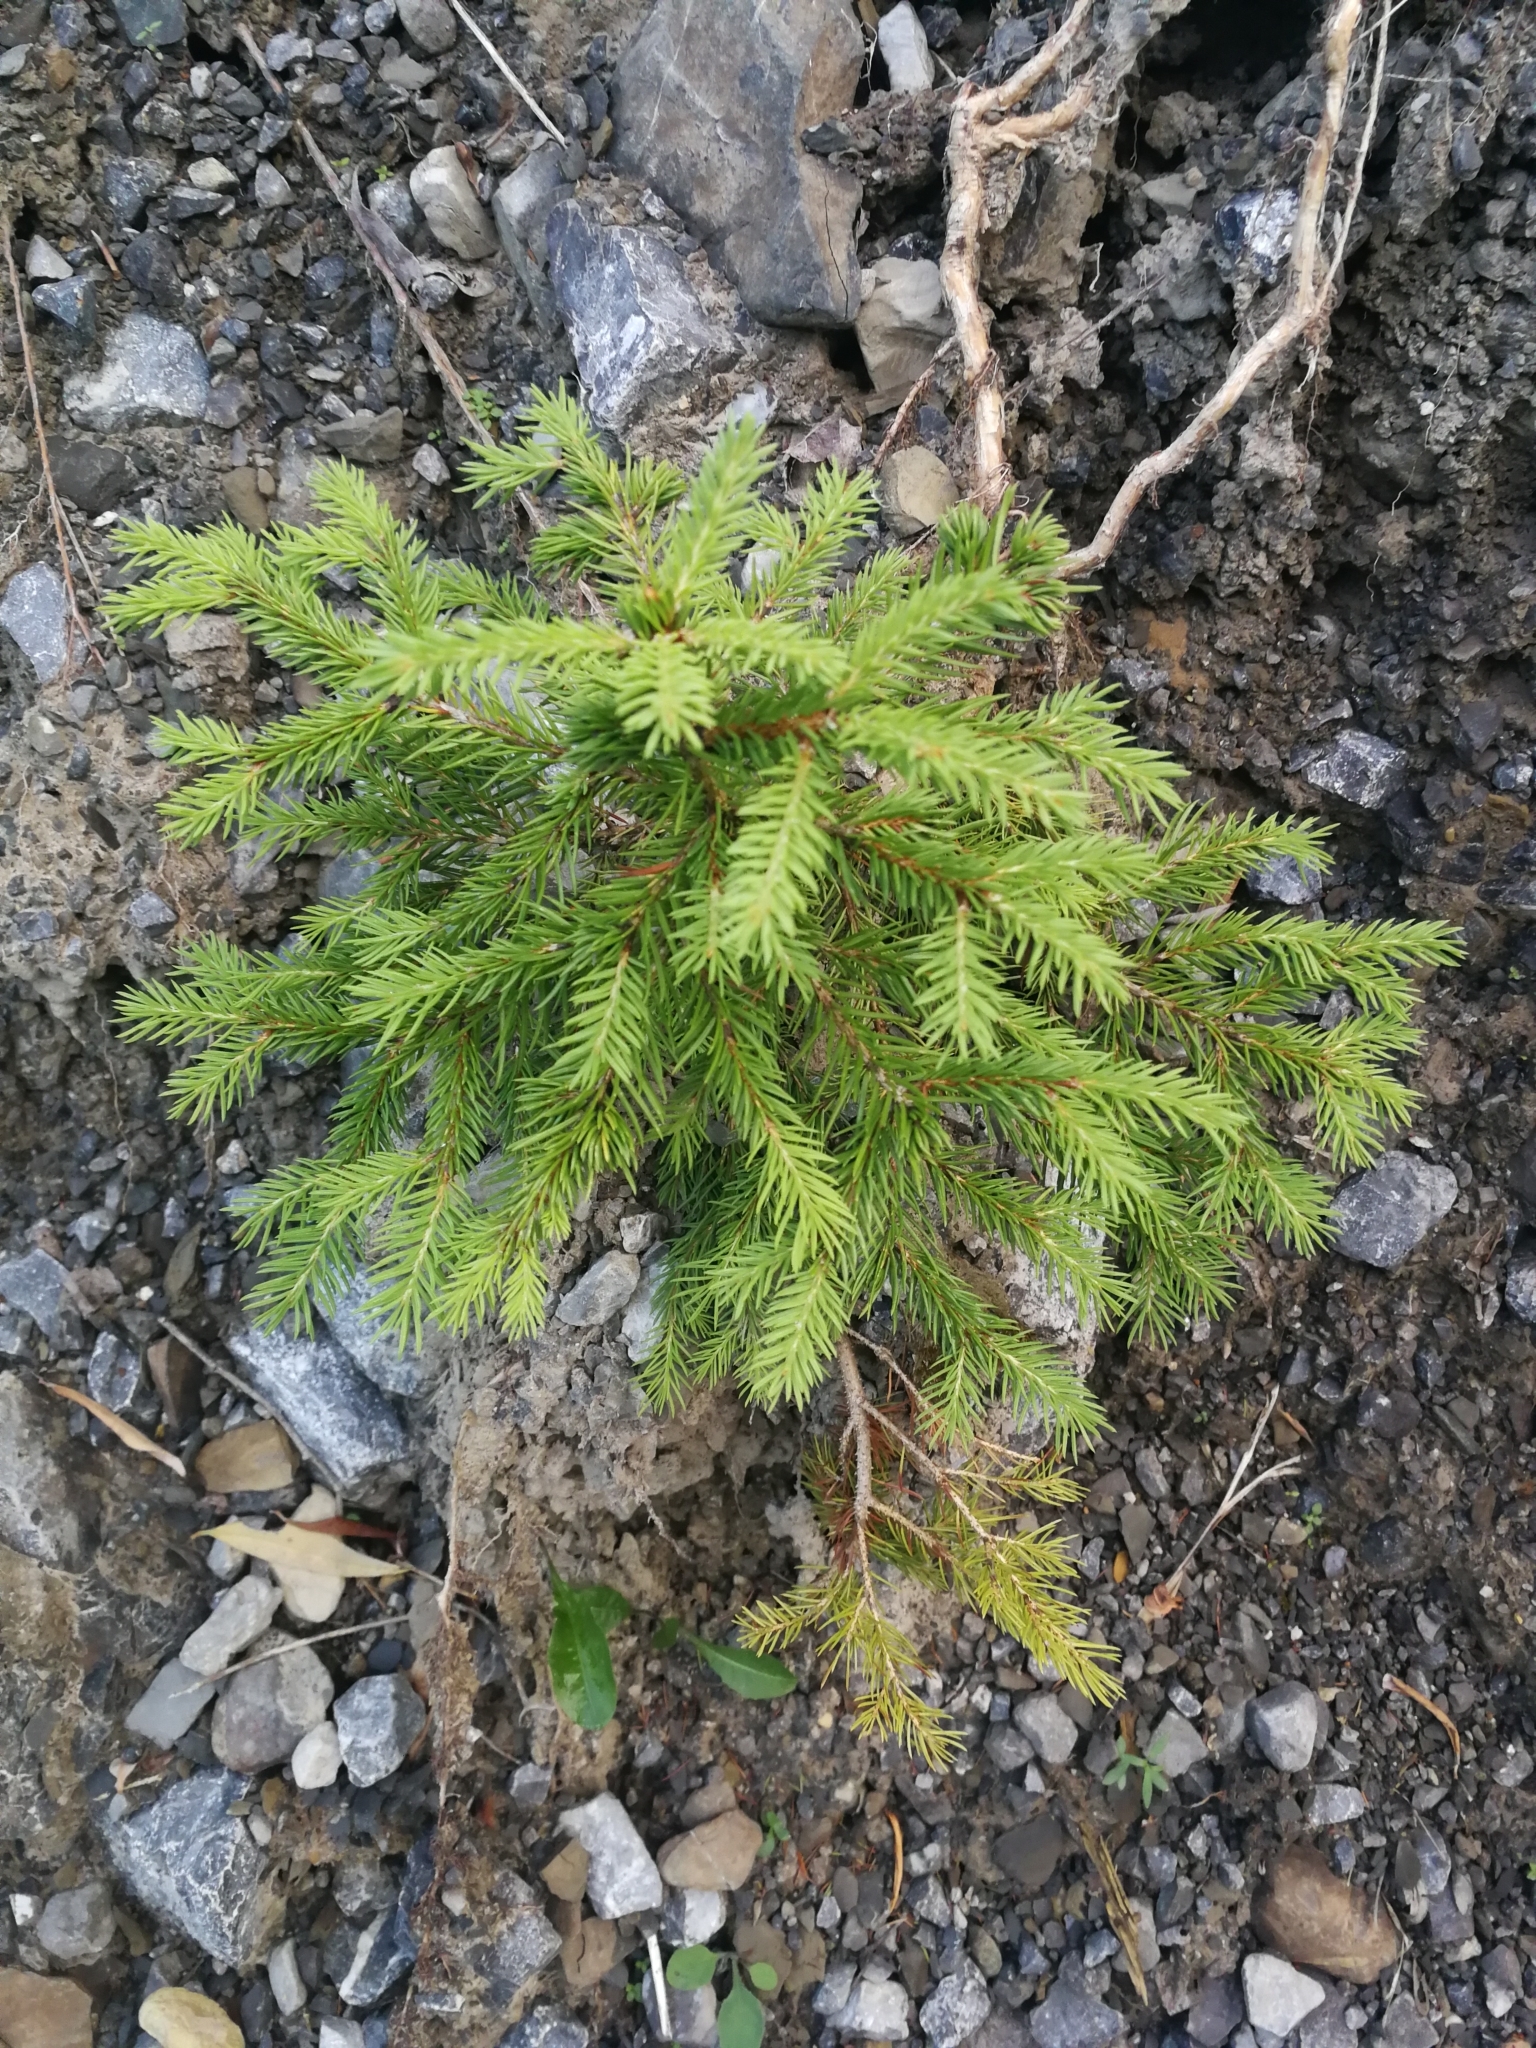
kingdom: Plantae
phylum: Tracheophyta
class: Pinopsida
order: Pinales
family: Pinaceae
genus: Picea
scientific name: Picea abies
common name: Norway spruce
